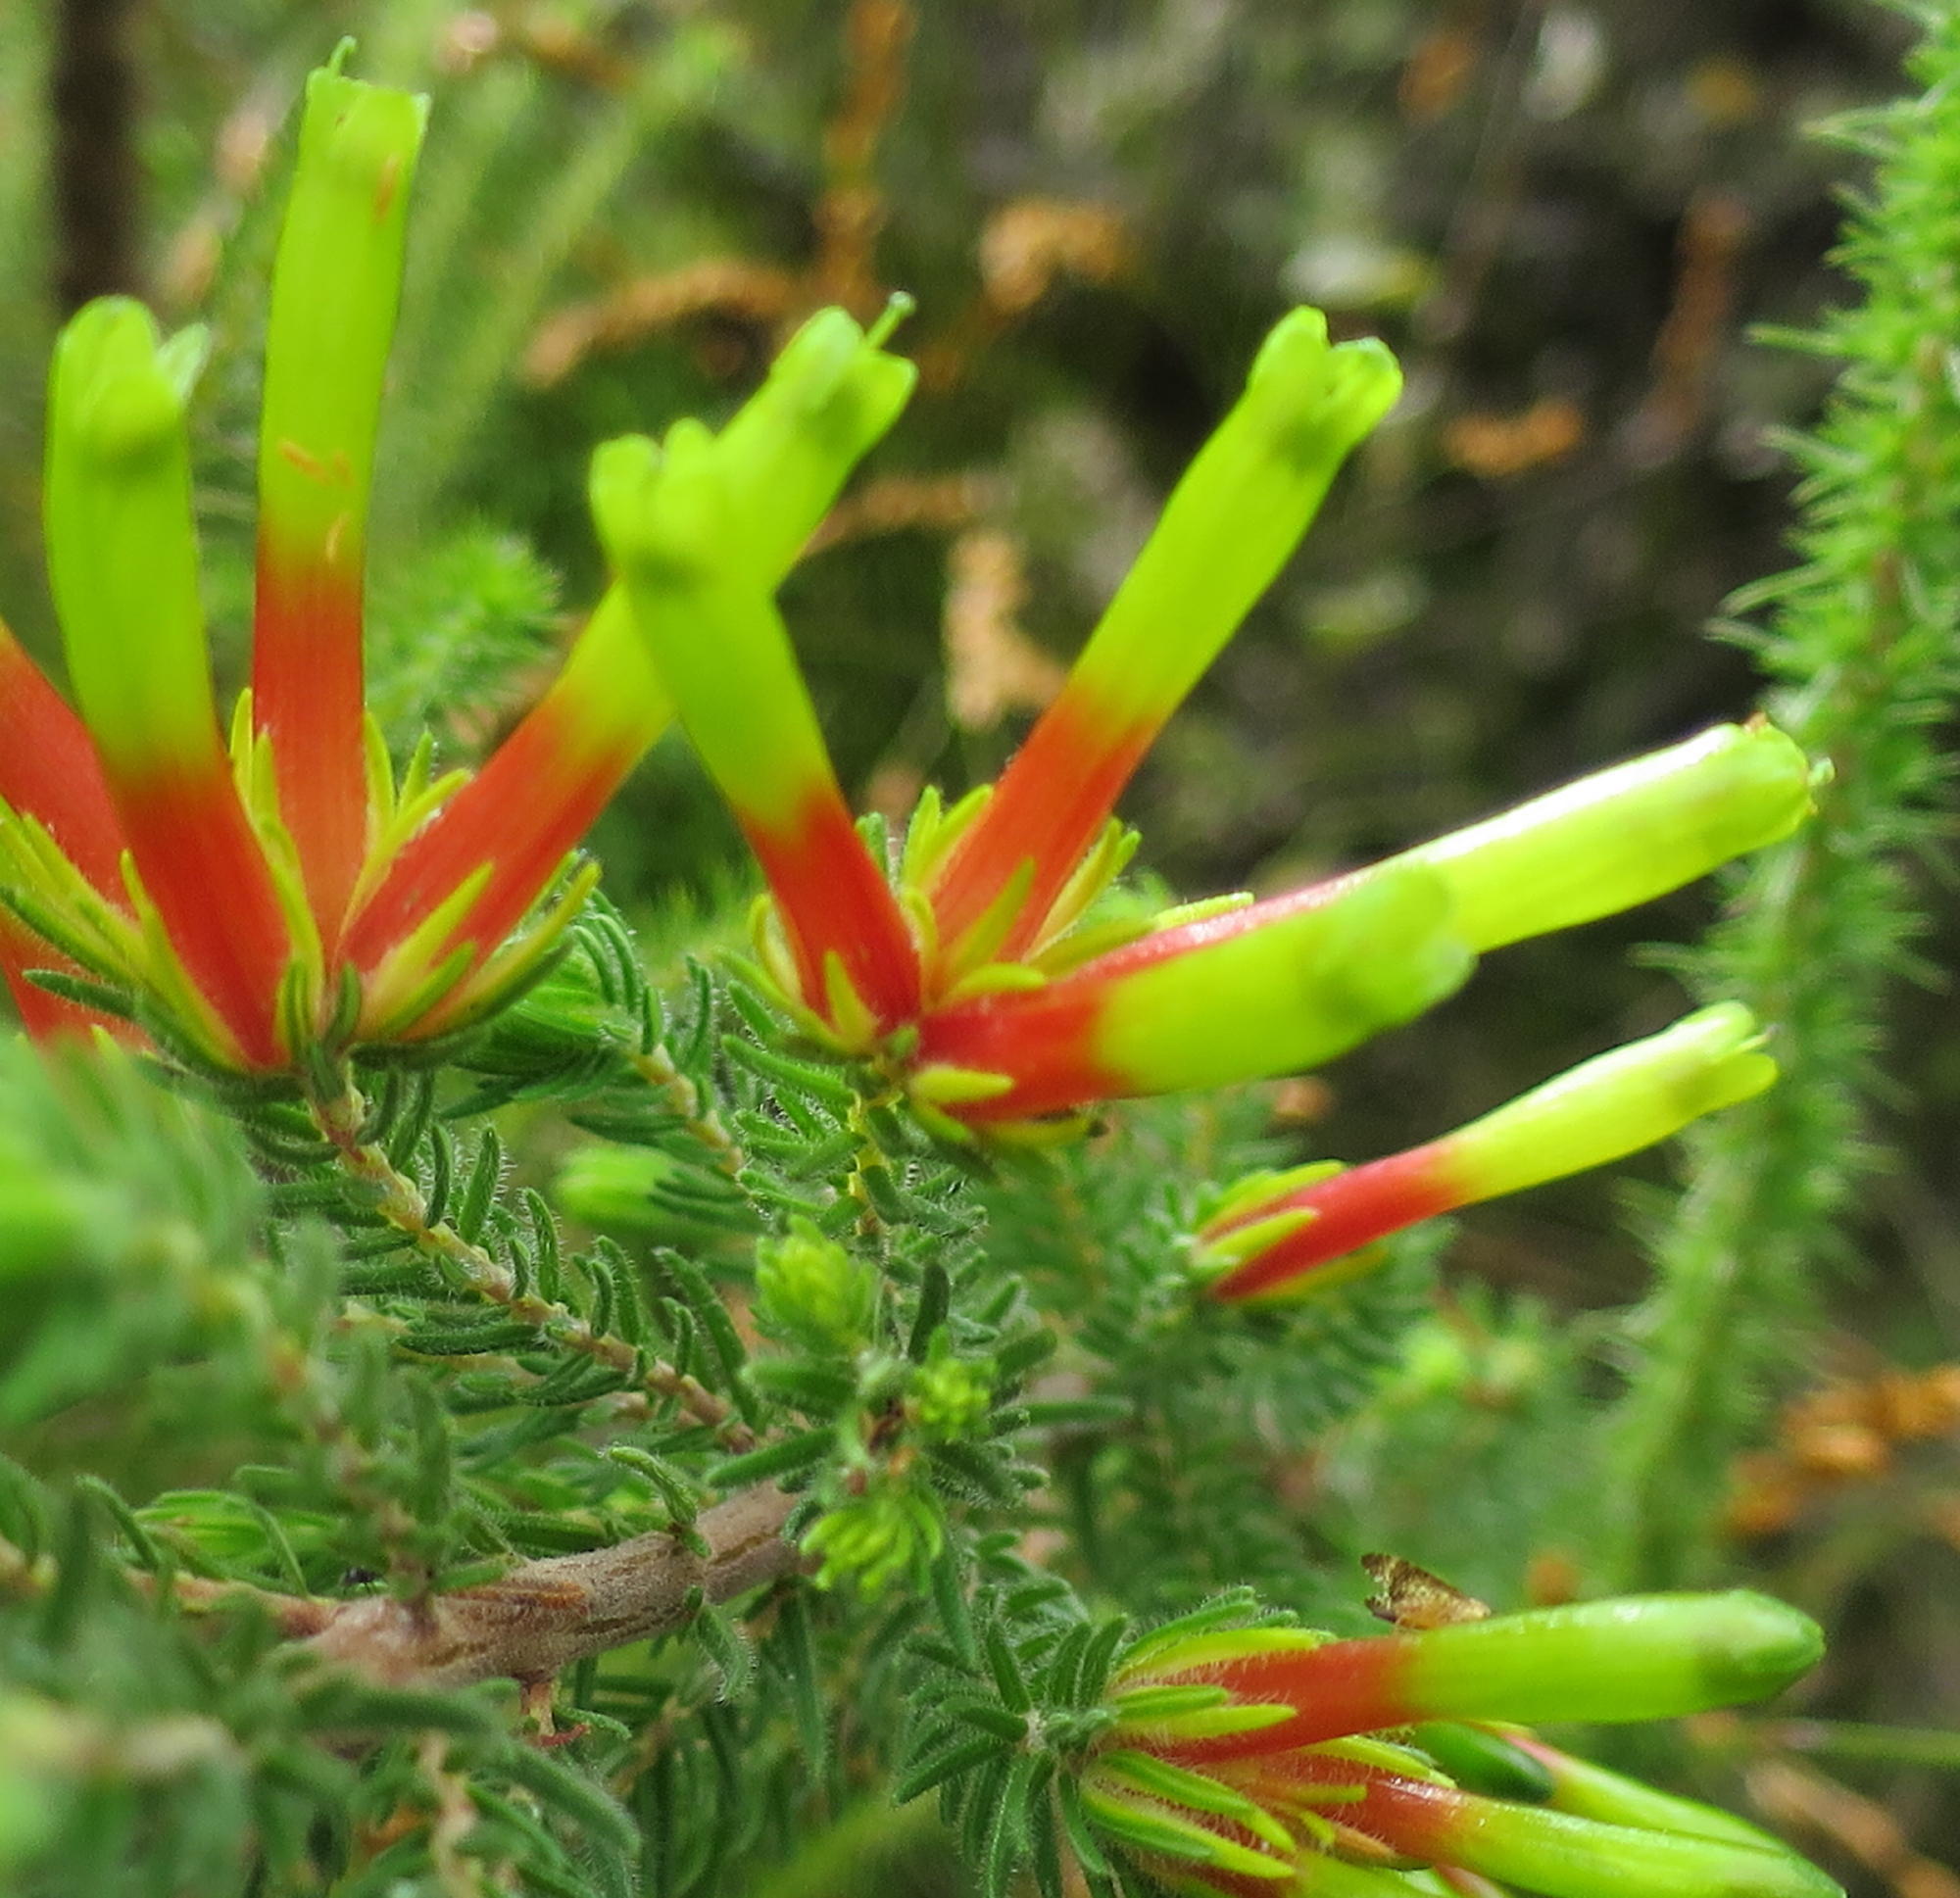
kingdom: Plantae
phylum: Tracheophyta
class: Magnoliopsida
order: Ericales
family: Ericaceae
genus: Erica
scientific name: Erica unicolor
